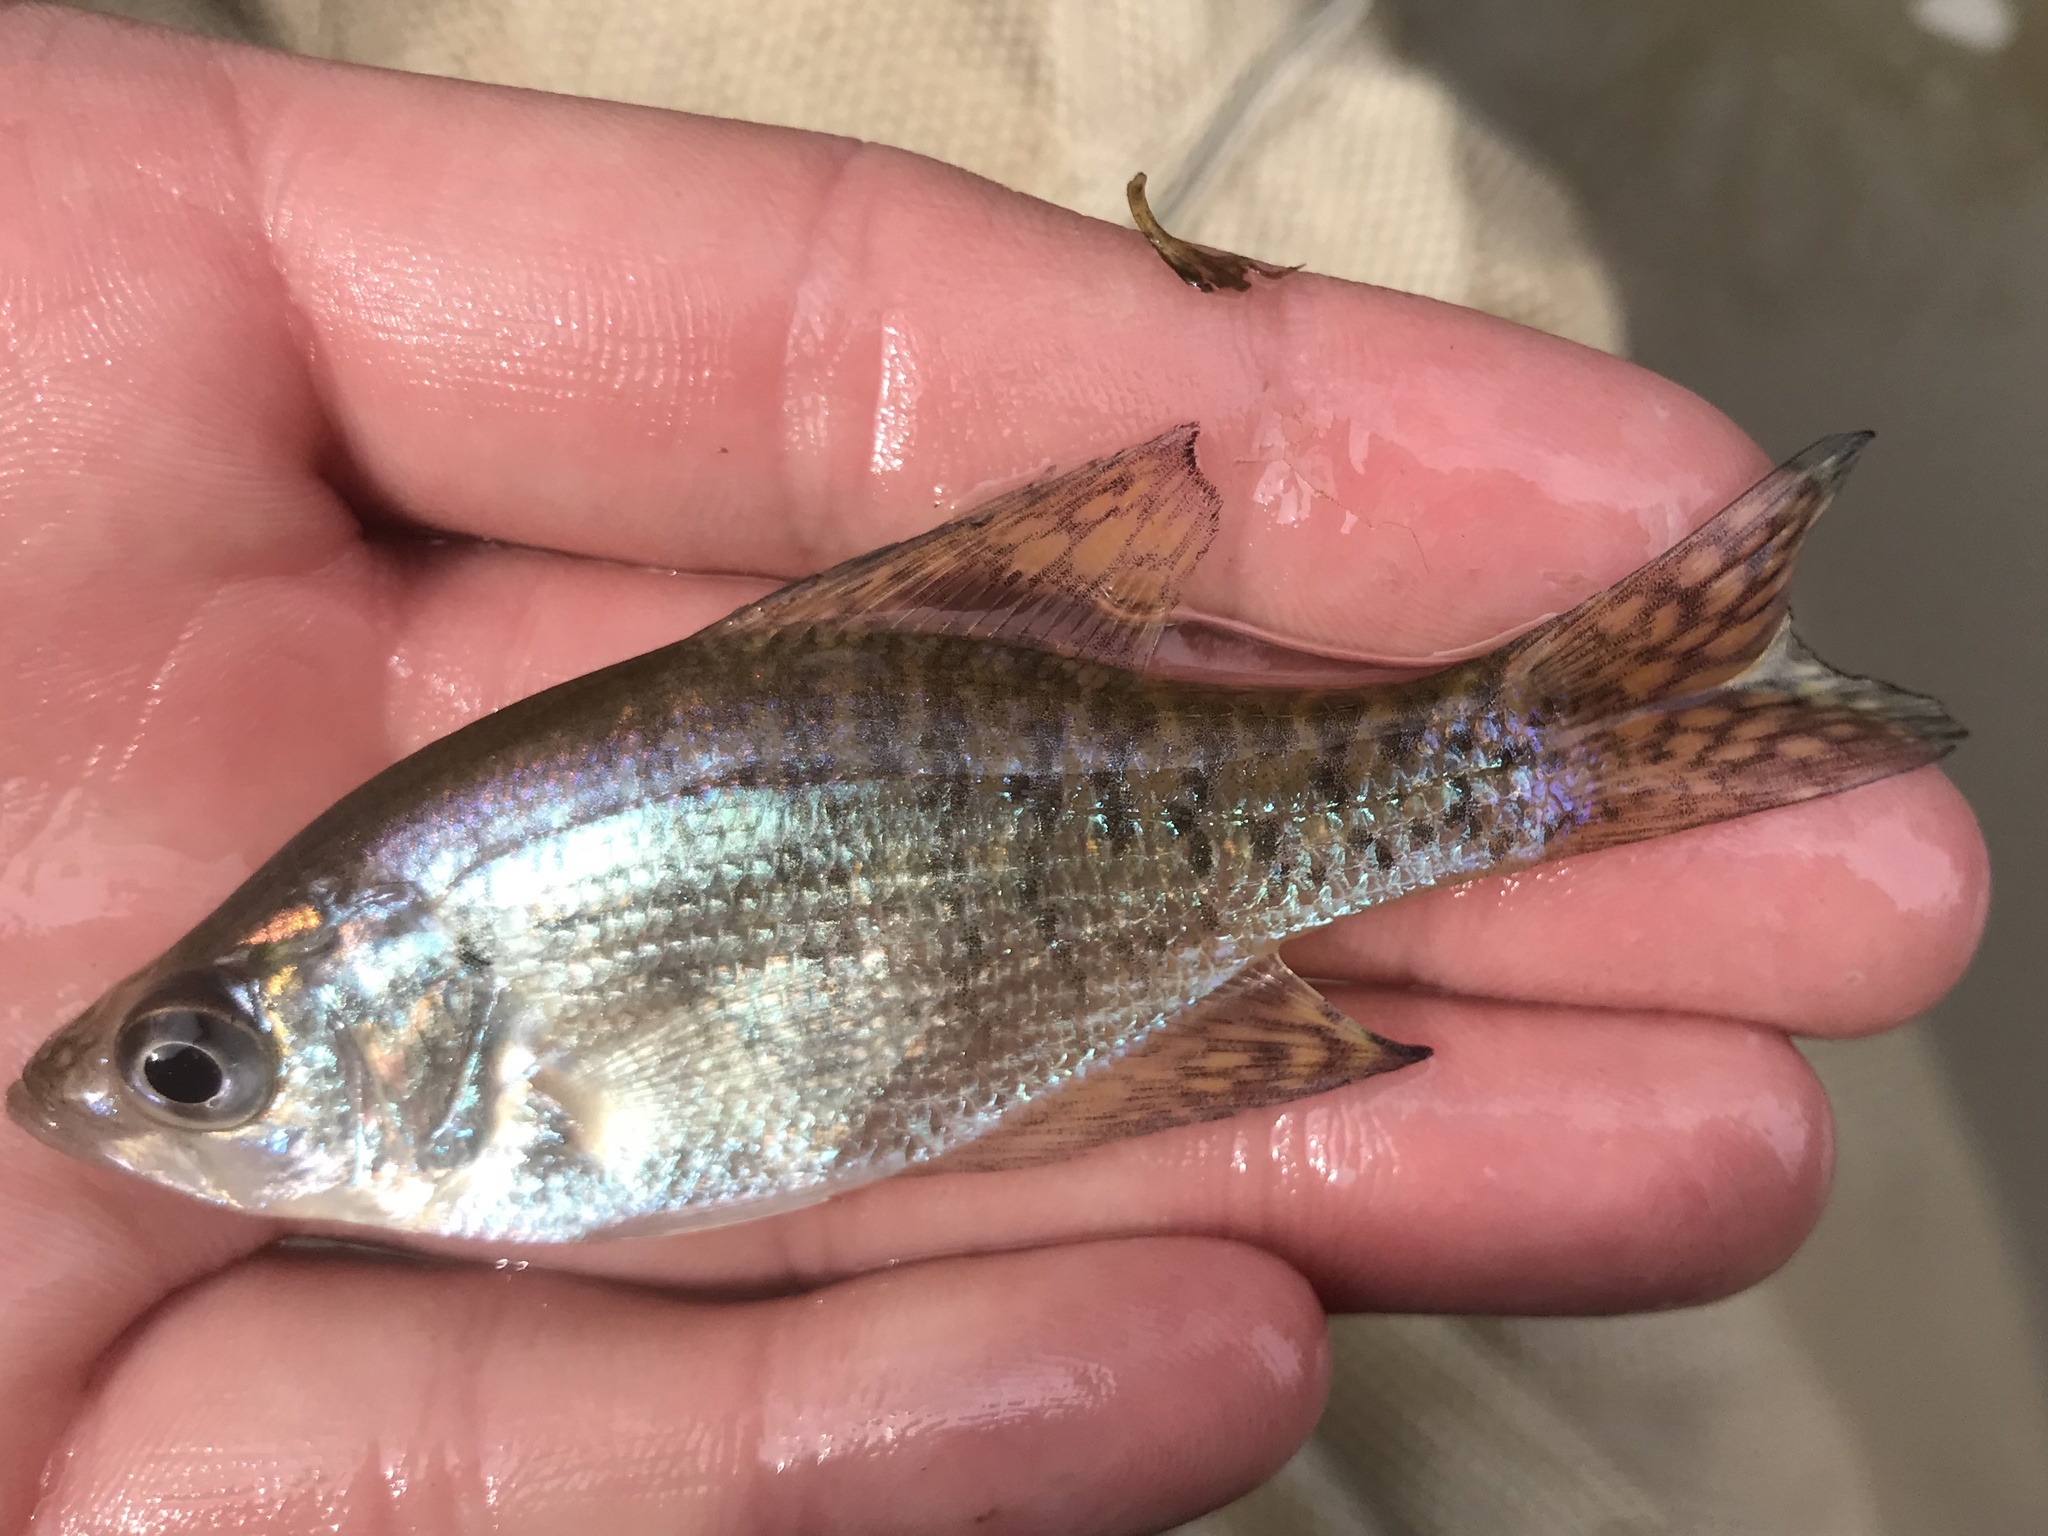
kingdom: Animalia
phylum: Chordata
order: Perciformes
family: Centrarchidae
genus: Pomoxis
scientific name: Pomoxis annularis
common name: White crappie
